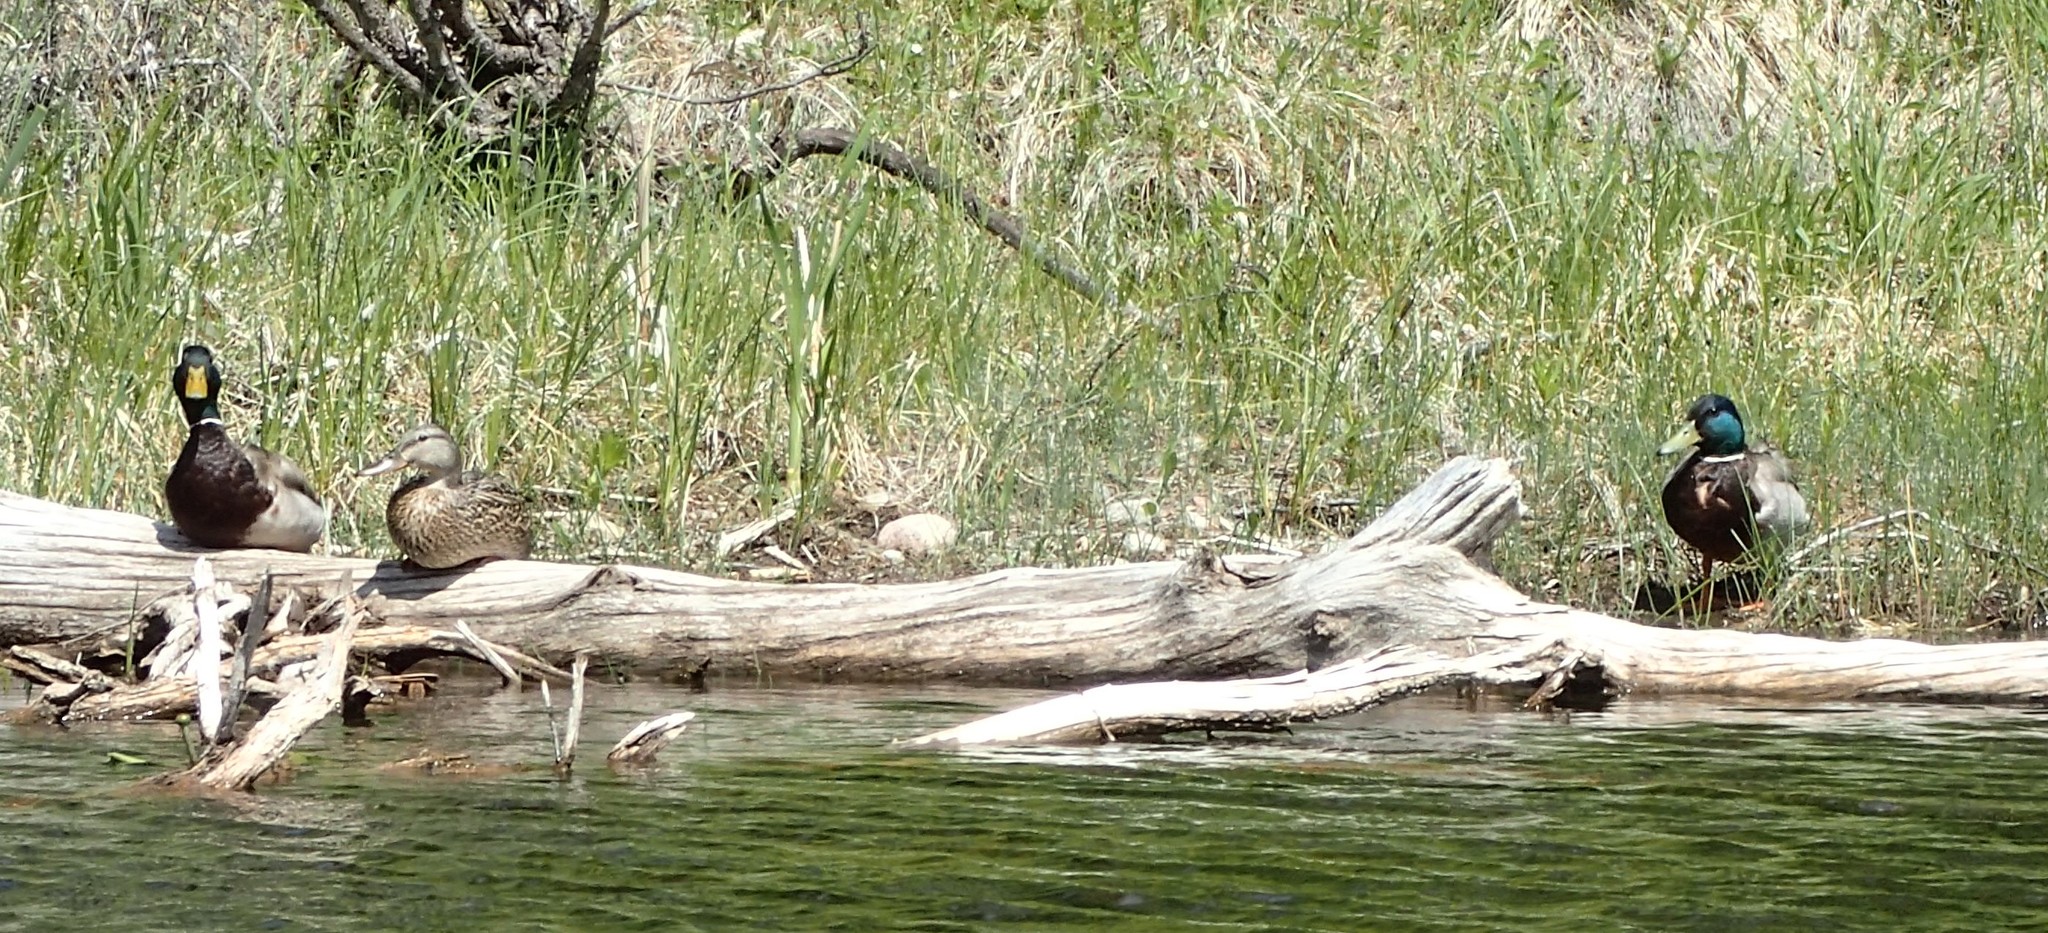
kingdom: Animalia
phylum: Chordata
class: Aves
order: Anseriformes
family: Anatidae
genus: Anas
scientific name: Anas platyrhynchos
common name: Mallard
